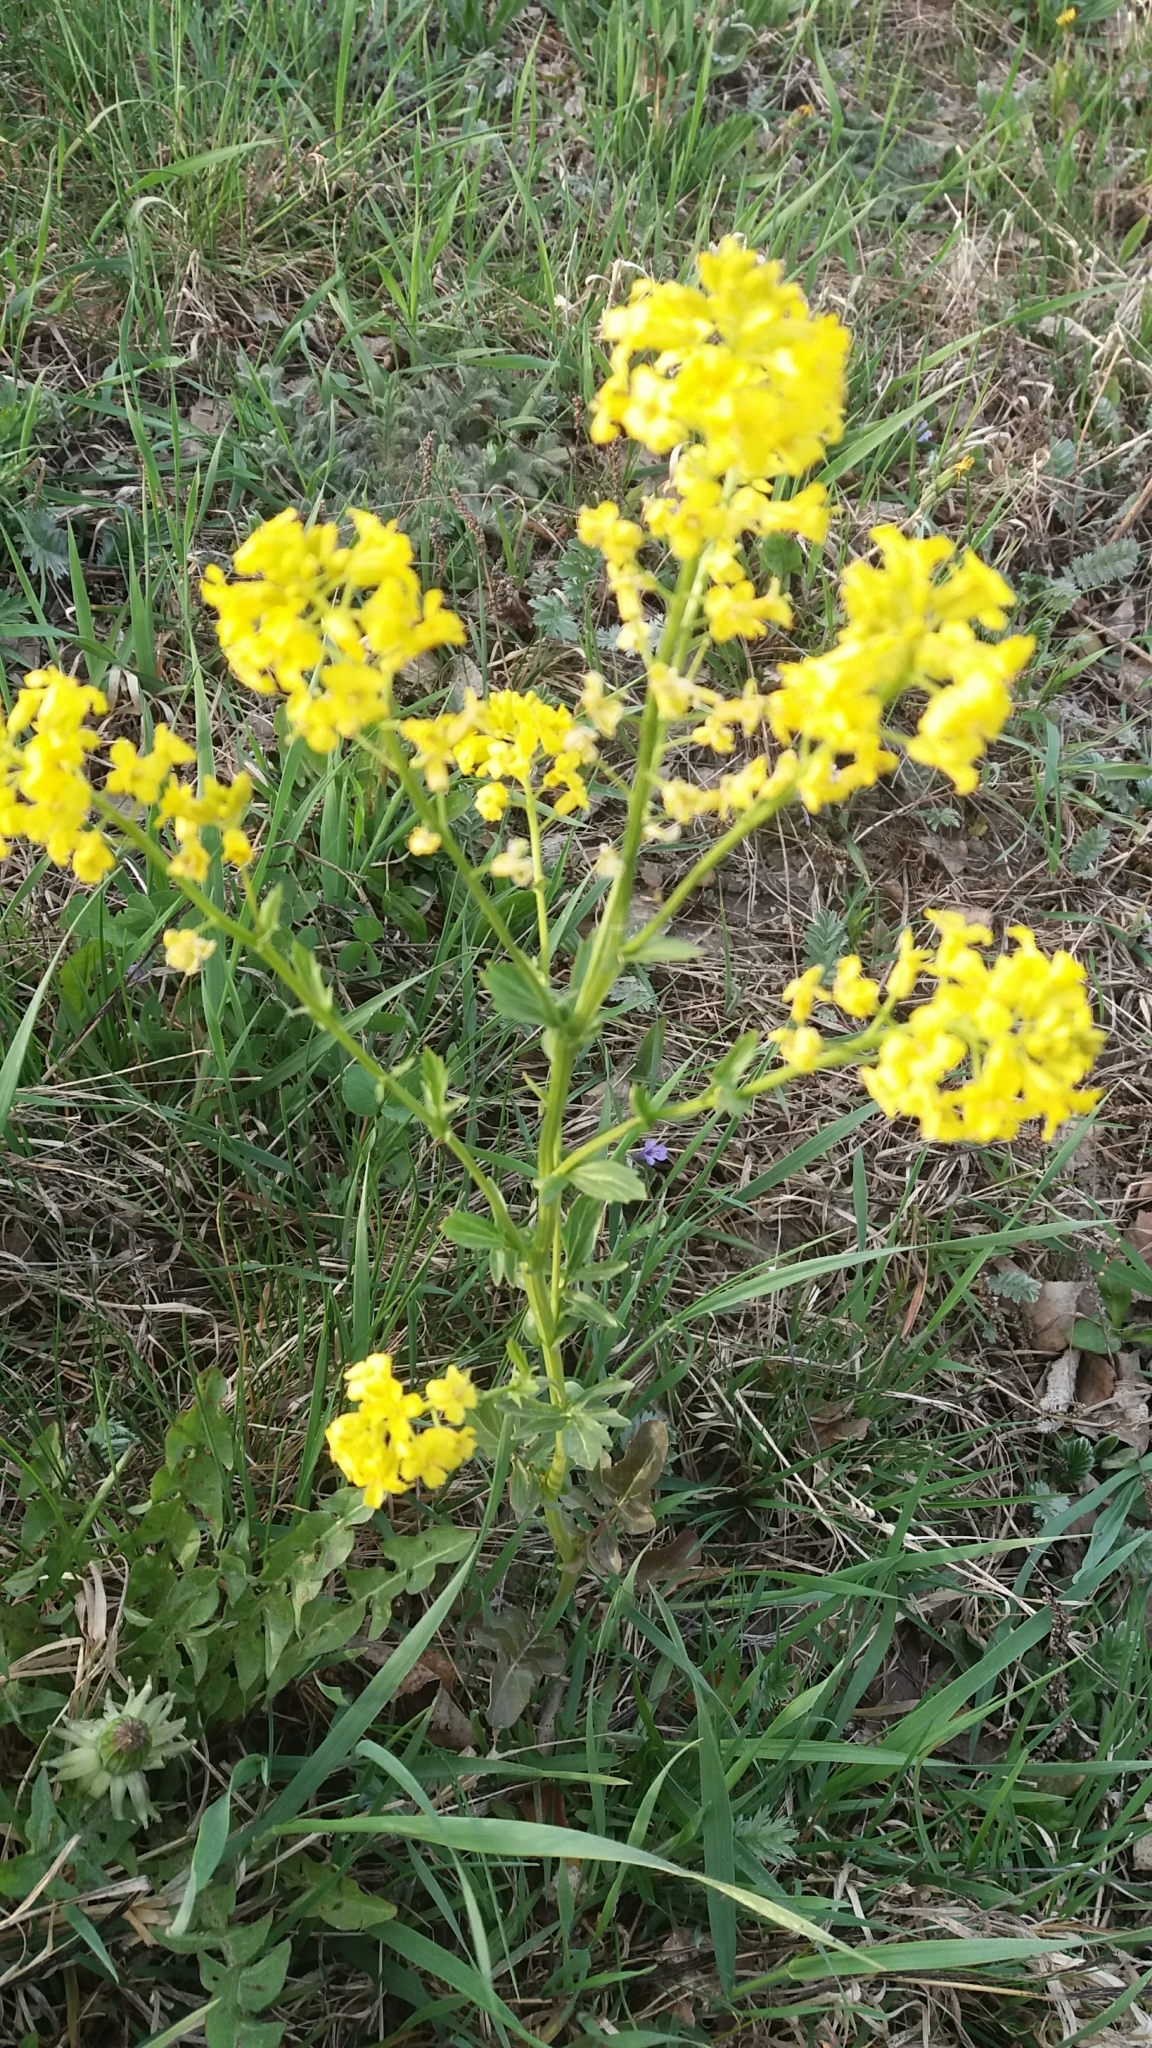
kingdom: Plantae
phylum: Tracheophyta
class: Magnoliopsida
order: Brassicales
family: Brassicaceae
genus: Barbarea
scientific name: Barbarea vulgaris
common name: Cressy-greens
